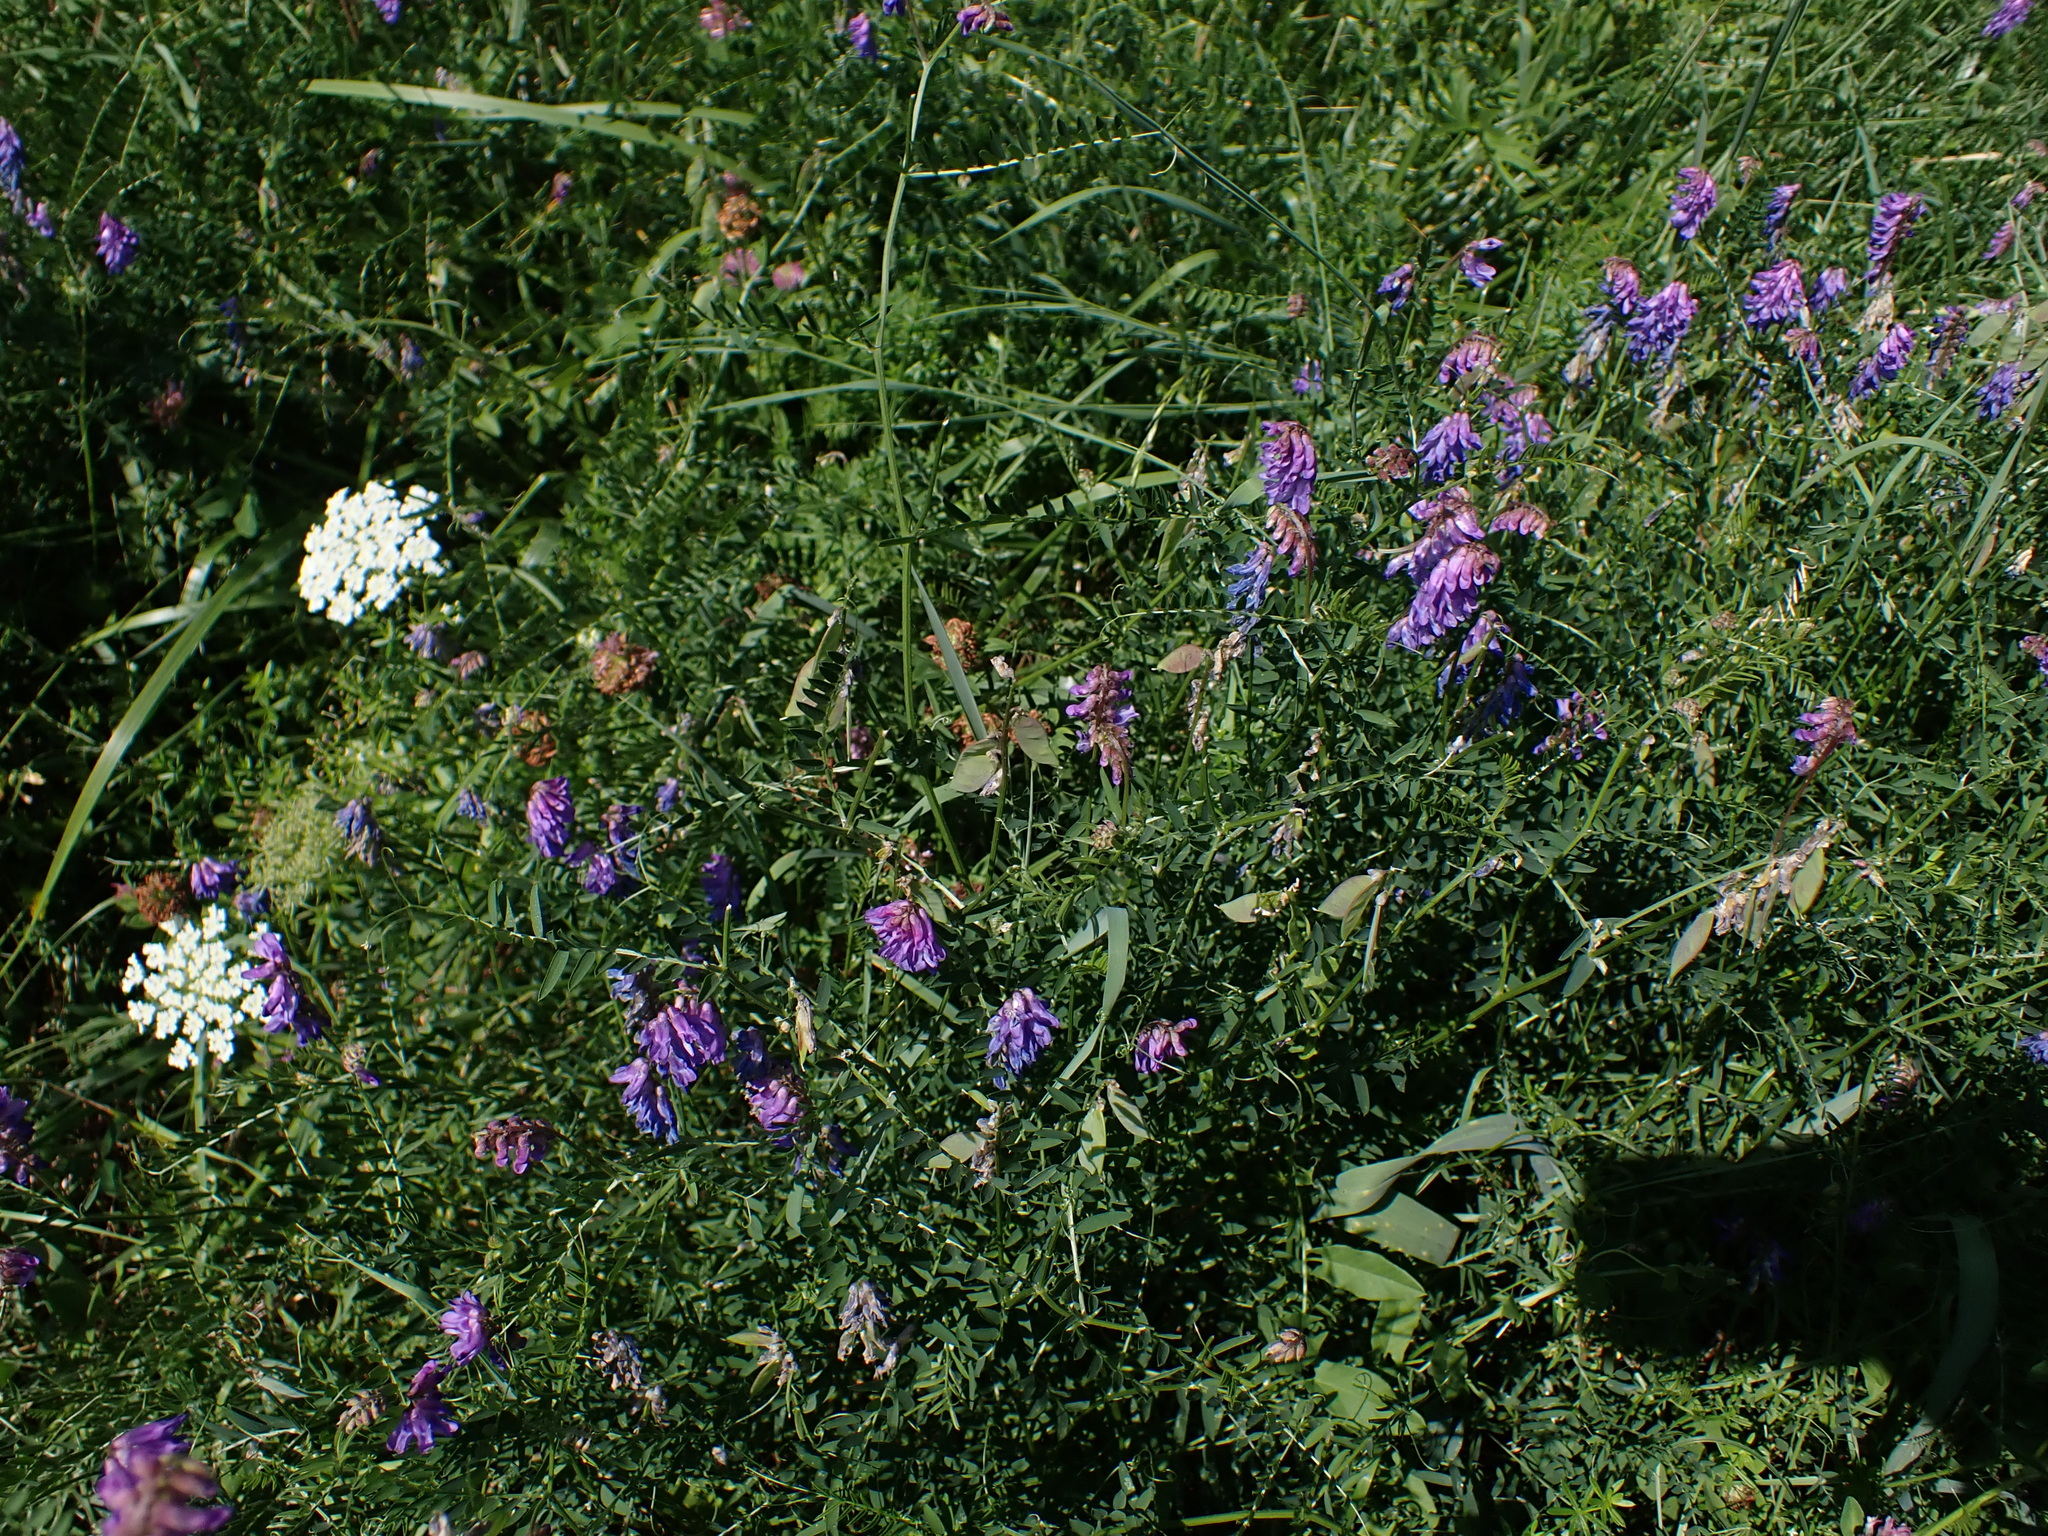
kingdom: Plantae
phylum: Tracheophyta
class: Magnoliopsida
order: Fabales
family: Fabaceae
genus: Vicia
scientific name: Vicia cracca
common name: Bird vetch
